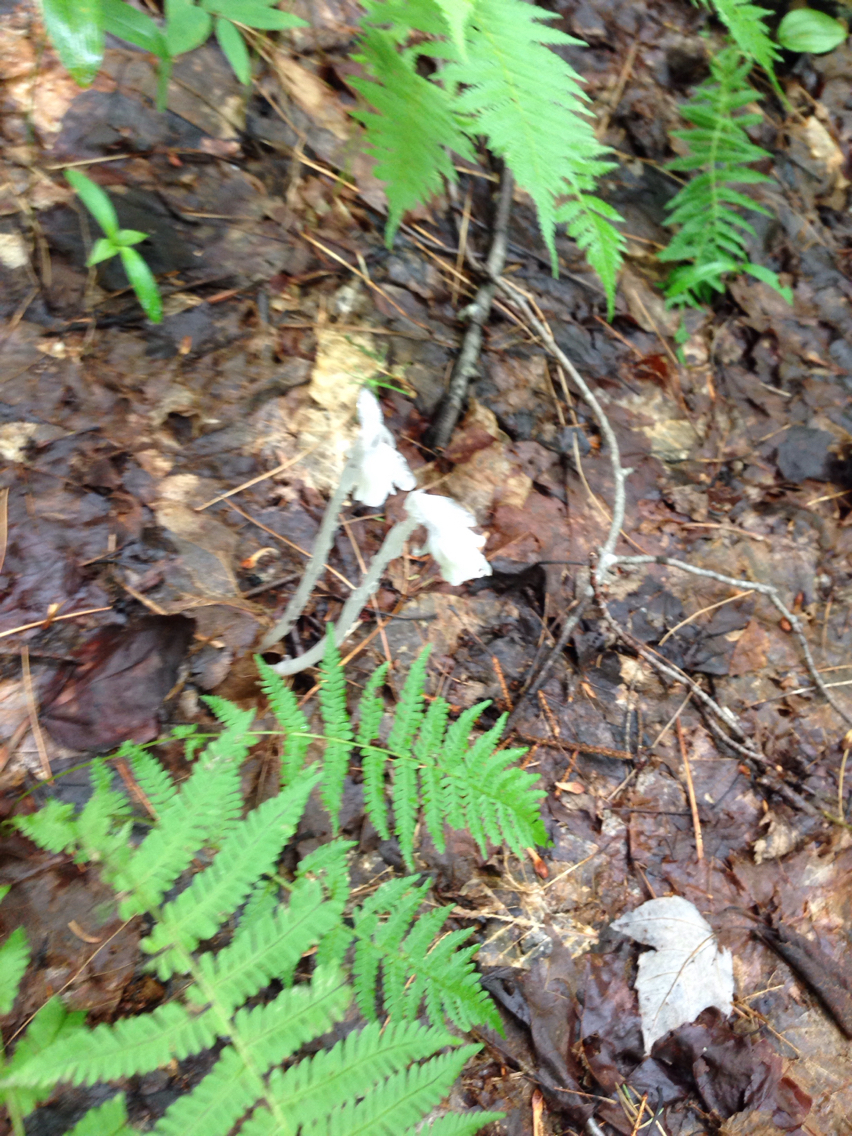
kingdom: Plantae
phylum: Tracheophyta
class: Magnoliopsida
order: Ericales
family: Ericaceae
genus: Monotropa
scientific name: Monotropa uniflora
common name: Convulsion root
